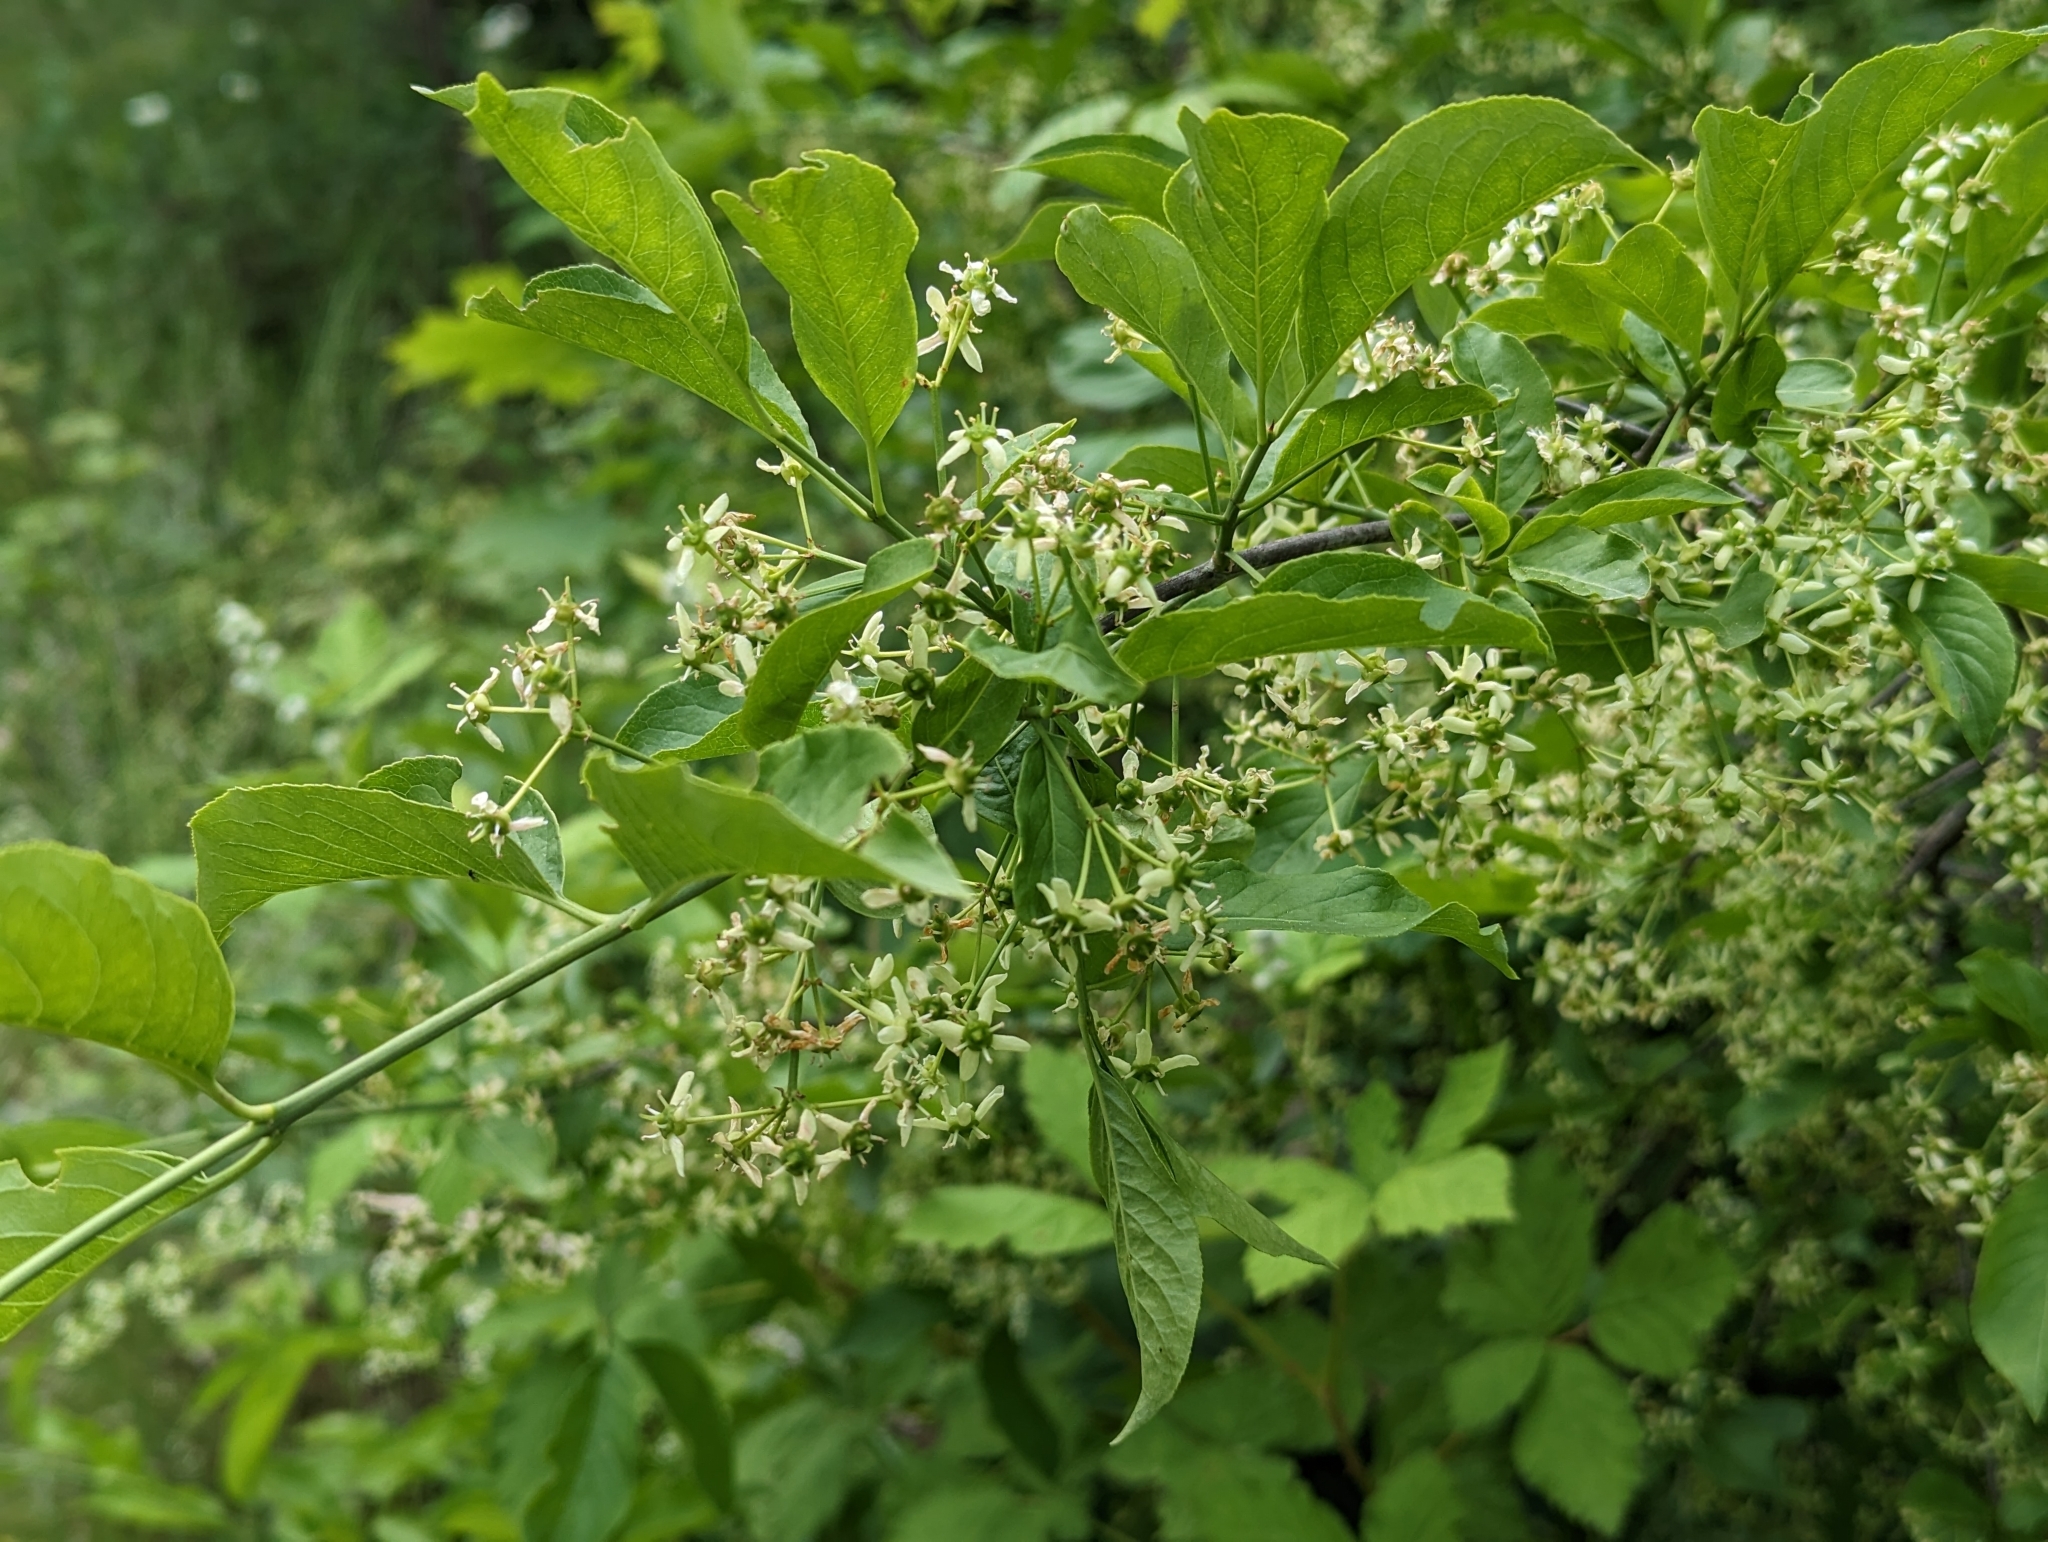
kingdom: Plantae
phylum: Tracheophyta
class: Magnoliopsida
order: Celastrales
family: Celastraceae
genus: Euonymus
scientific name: Euonymus europaeus
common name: Spindle
